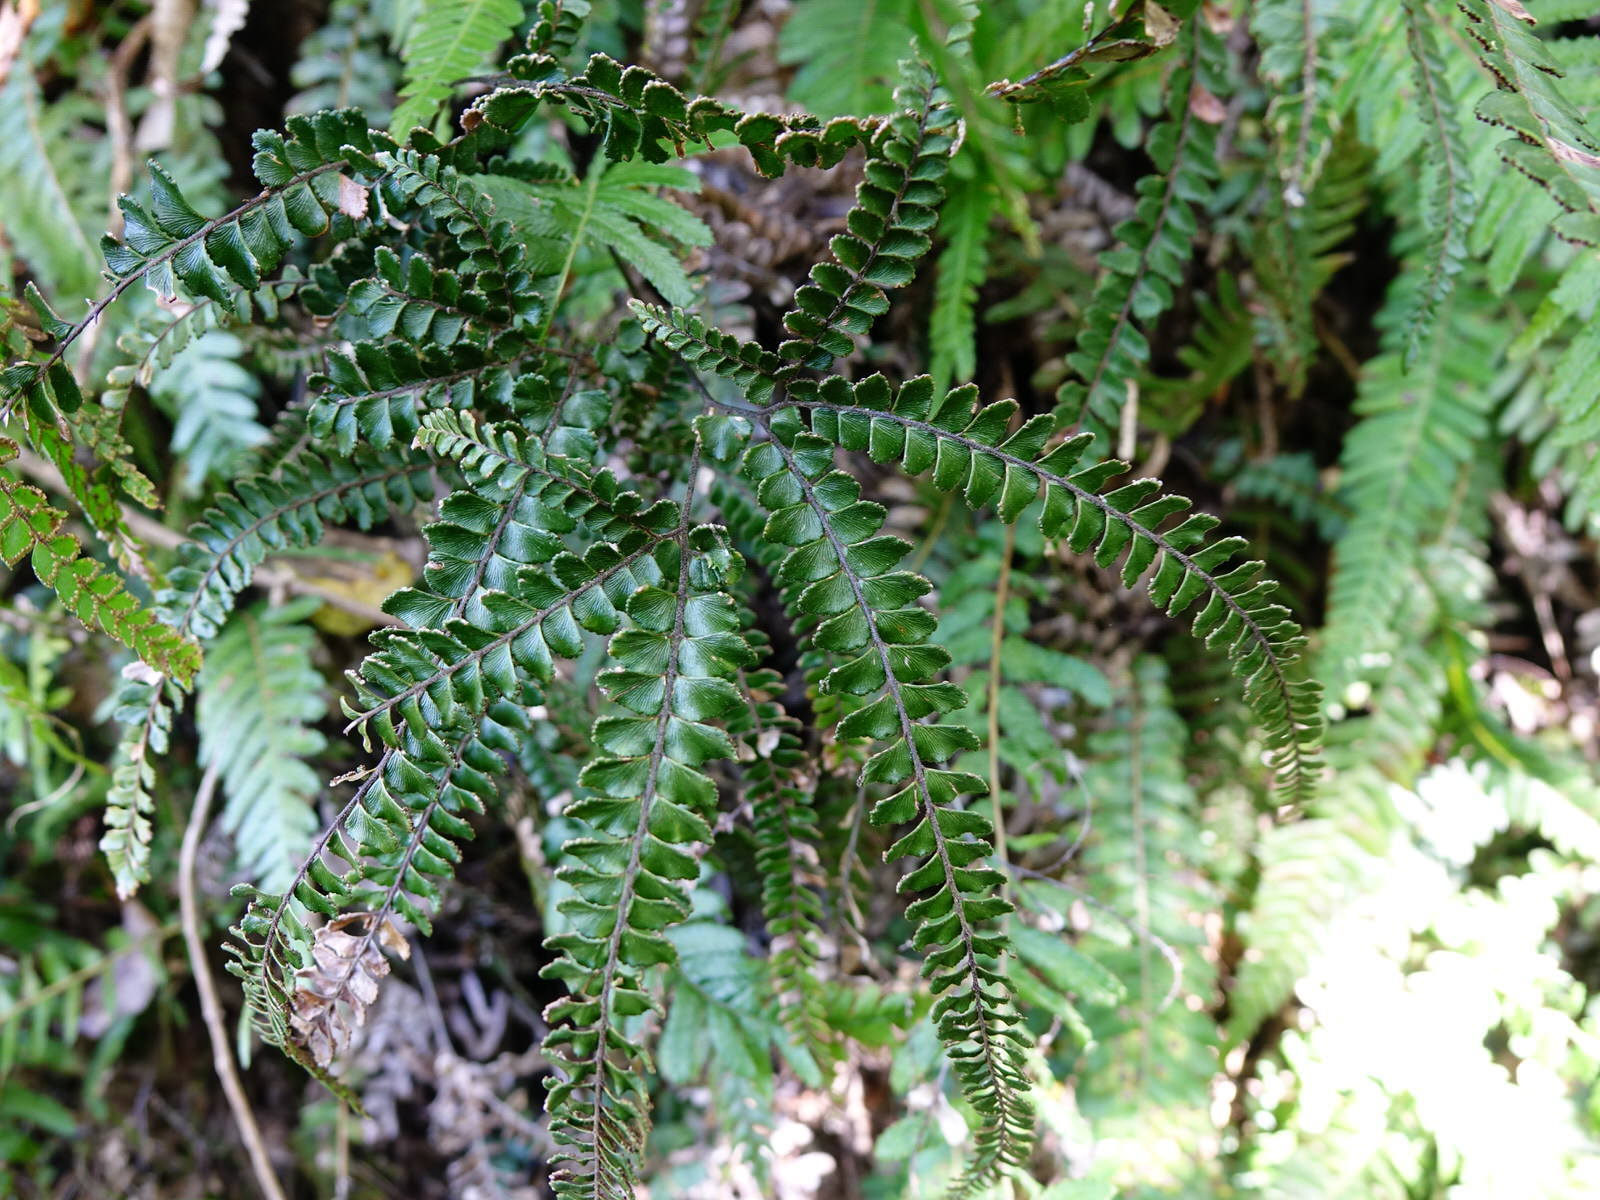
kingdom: Plantae
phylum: Tracheophyta
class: Polypodiopsida
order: Polypodiales
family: Pteridaceae
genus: Adiantum
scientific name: Adiantum hispidulum
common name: Rough maidenhair
